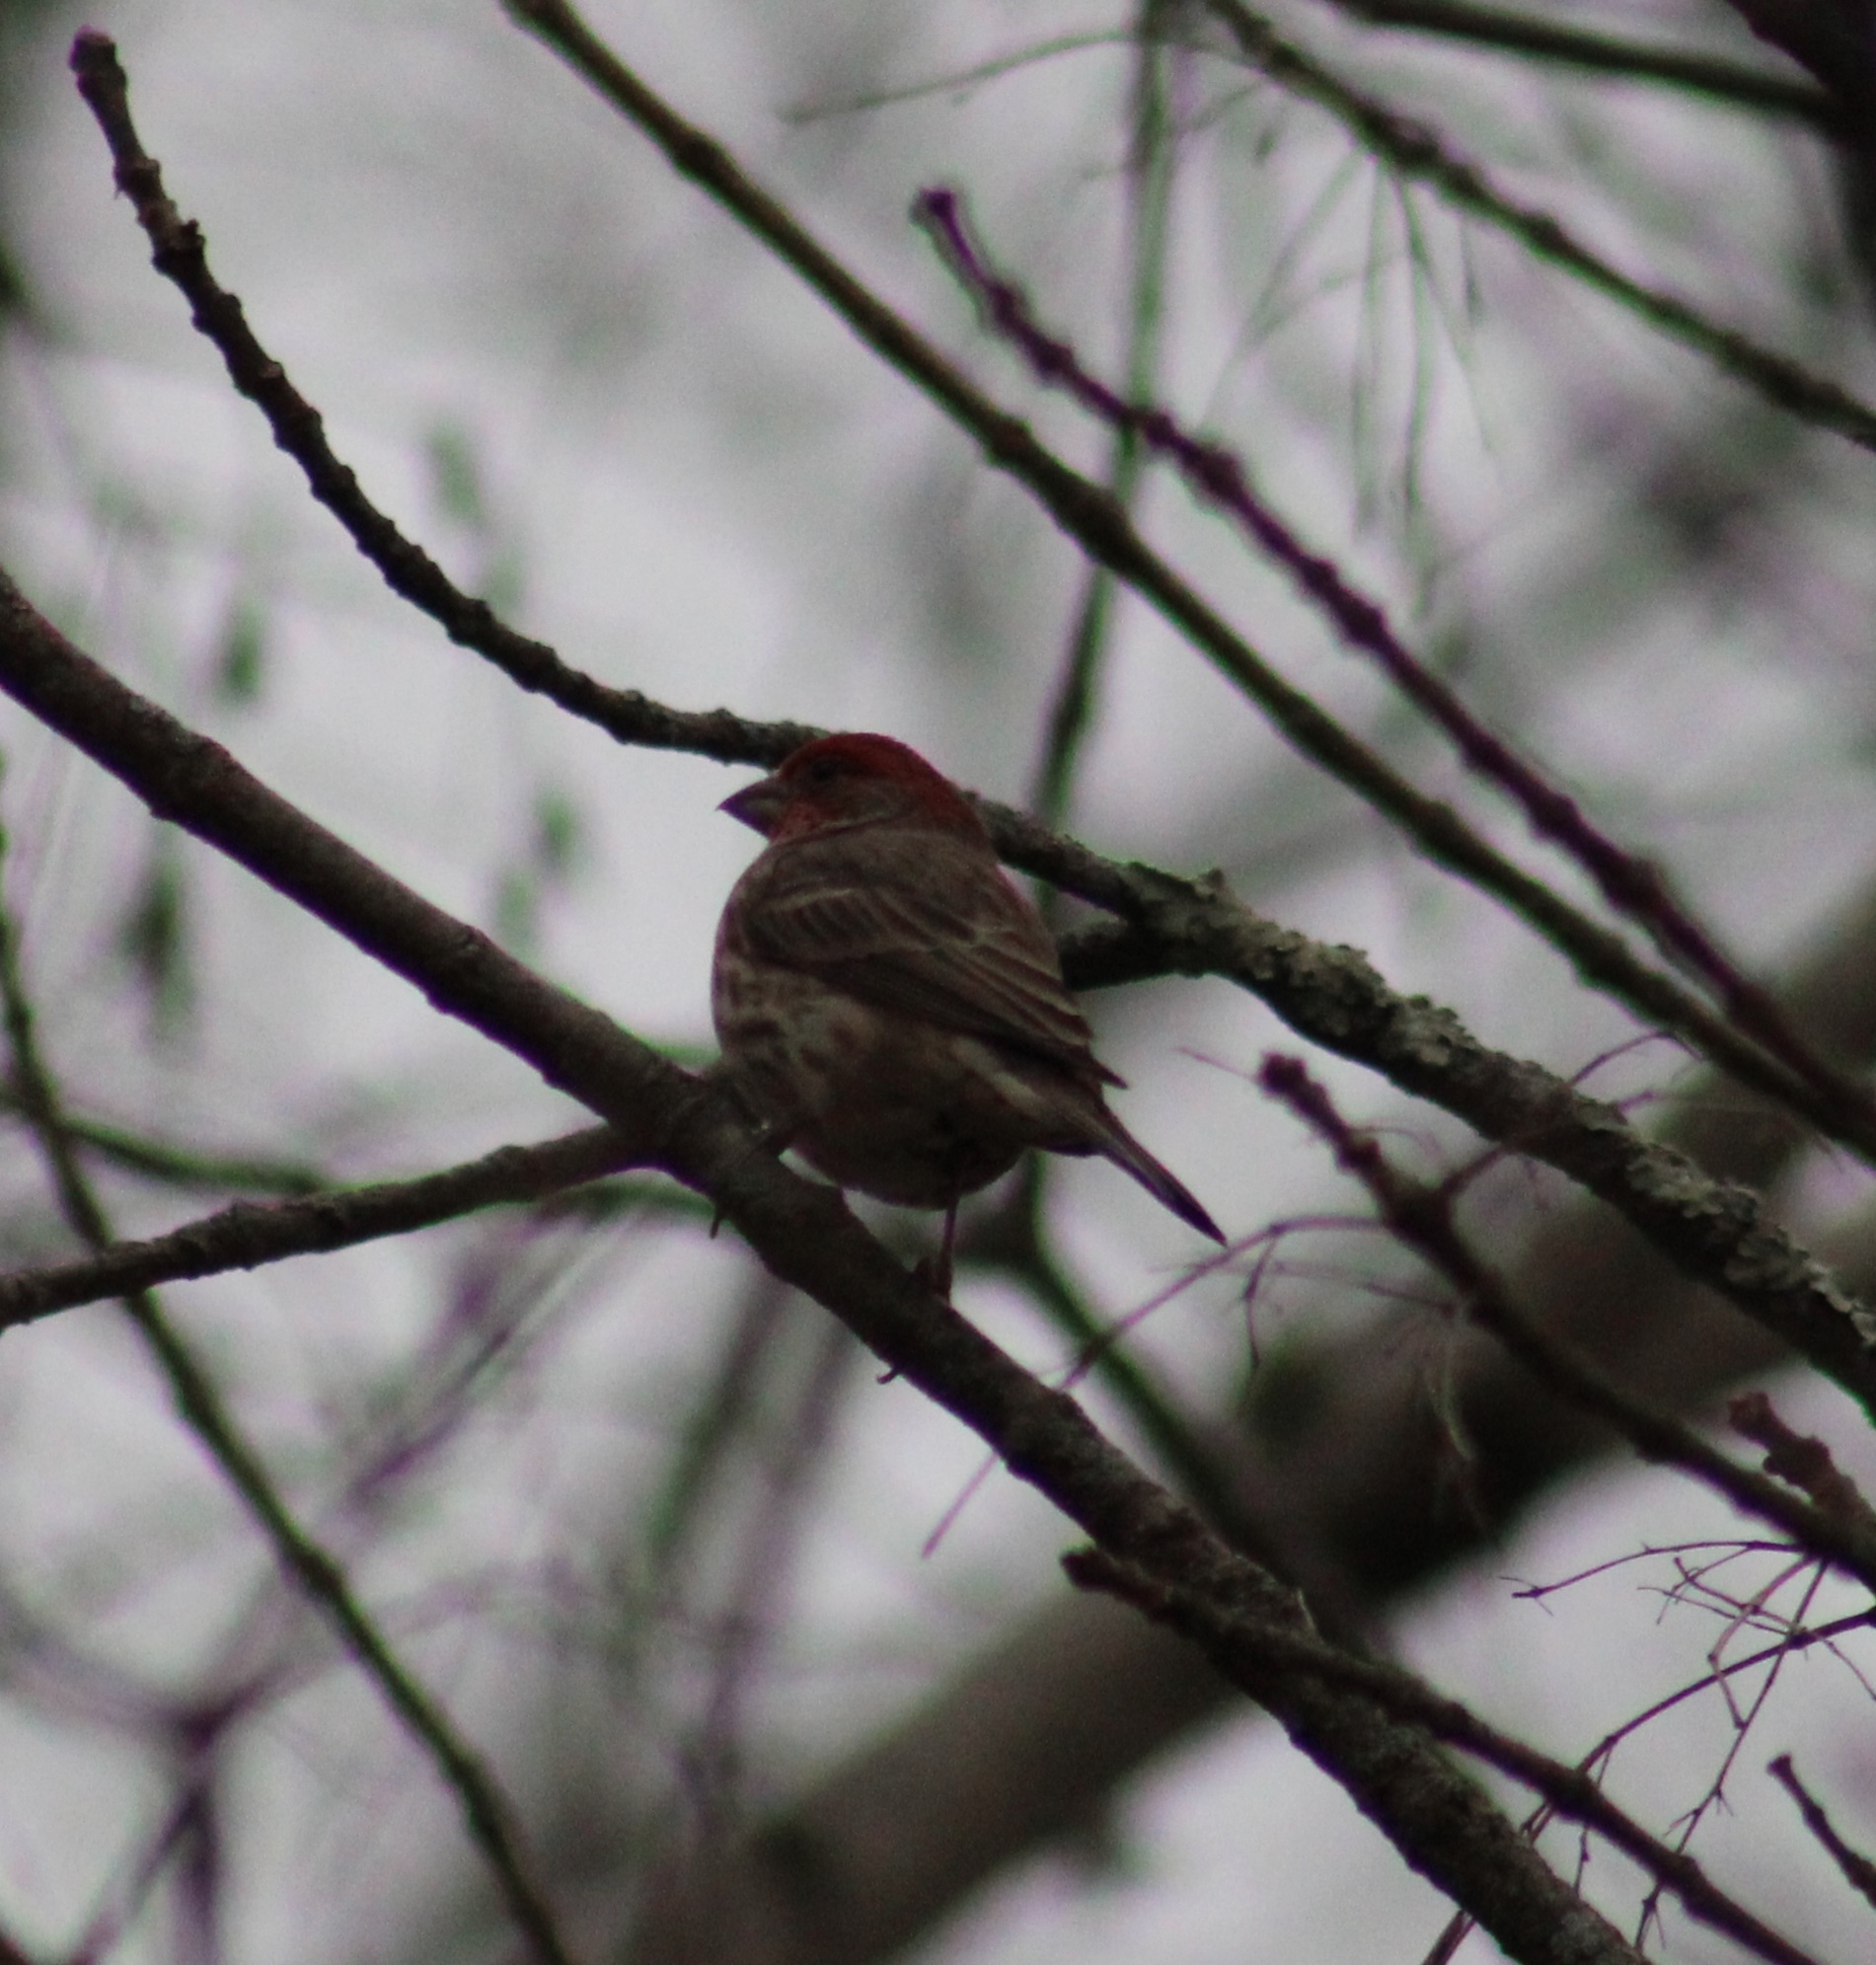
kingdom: Animalia
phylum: Chordata
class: Aves
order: Passeriformes
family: Fringillidae
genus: Haemorhous
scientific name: Haemorhous mexicanus
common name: House finch
